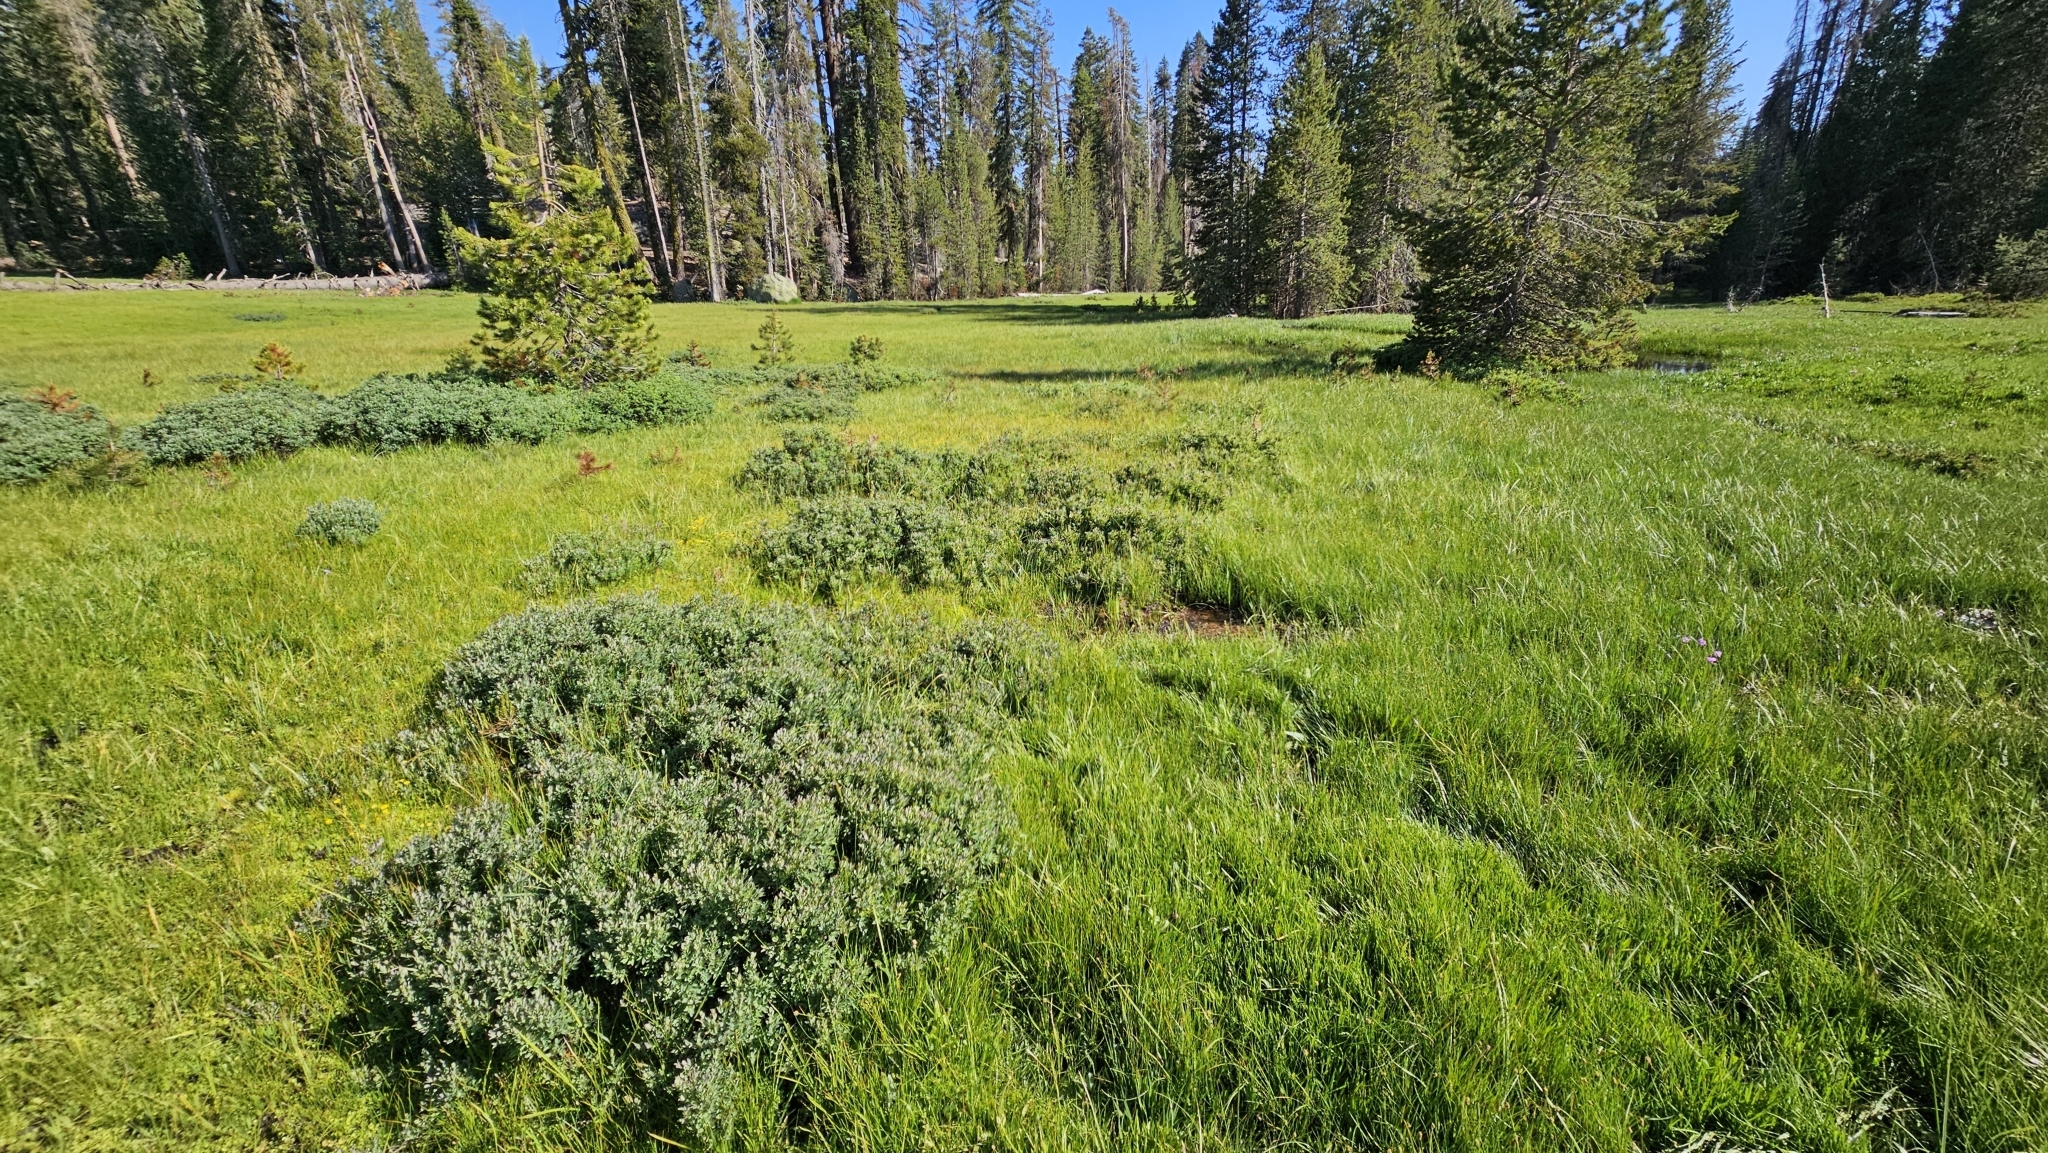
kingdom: Plantae
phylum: Bryophyta
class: Bryopsida
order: Splachnales
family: Meesiaceae
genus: Meesia
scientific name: Meesia triquetra
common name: Three-angled thread moss
